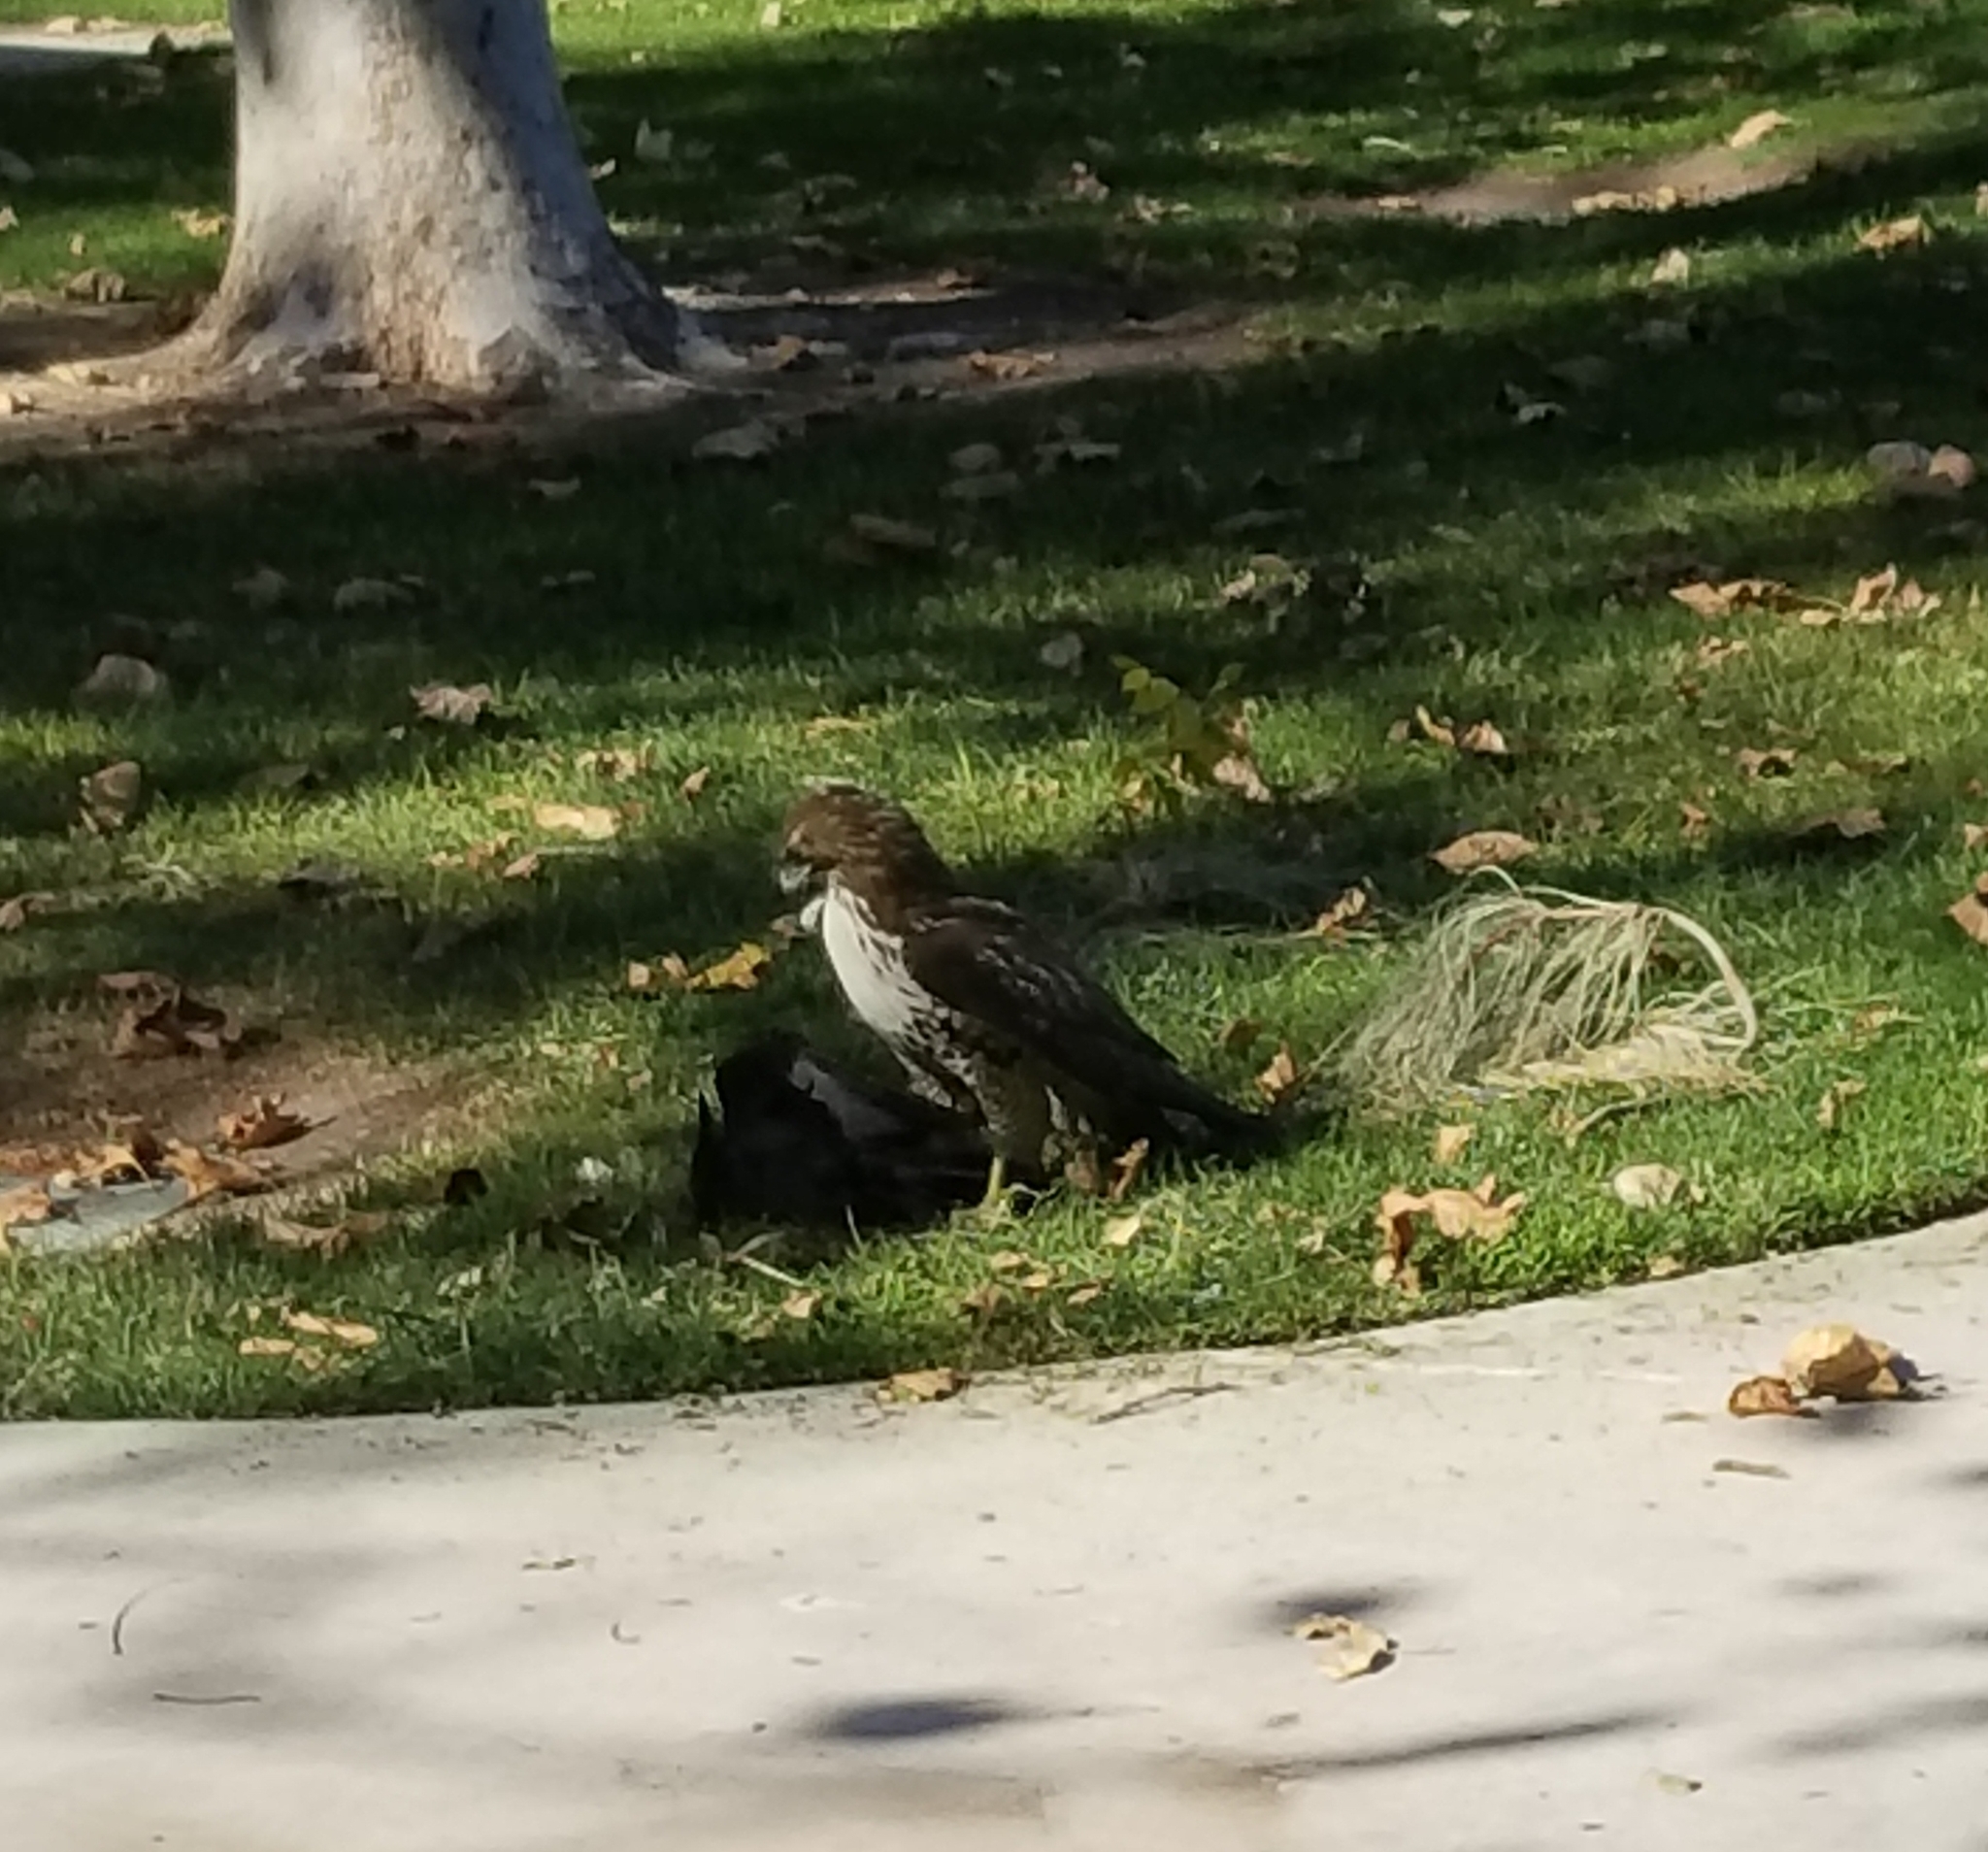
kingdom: Animalia
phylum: Chordata
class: Aves
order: Accipitriformes
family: Accipitridae
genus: Buteo
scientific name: Buteo jamaicensis
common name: Red-tailed hawk
